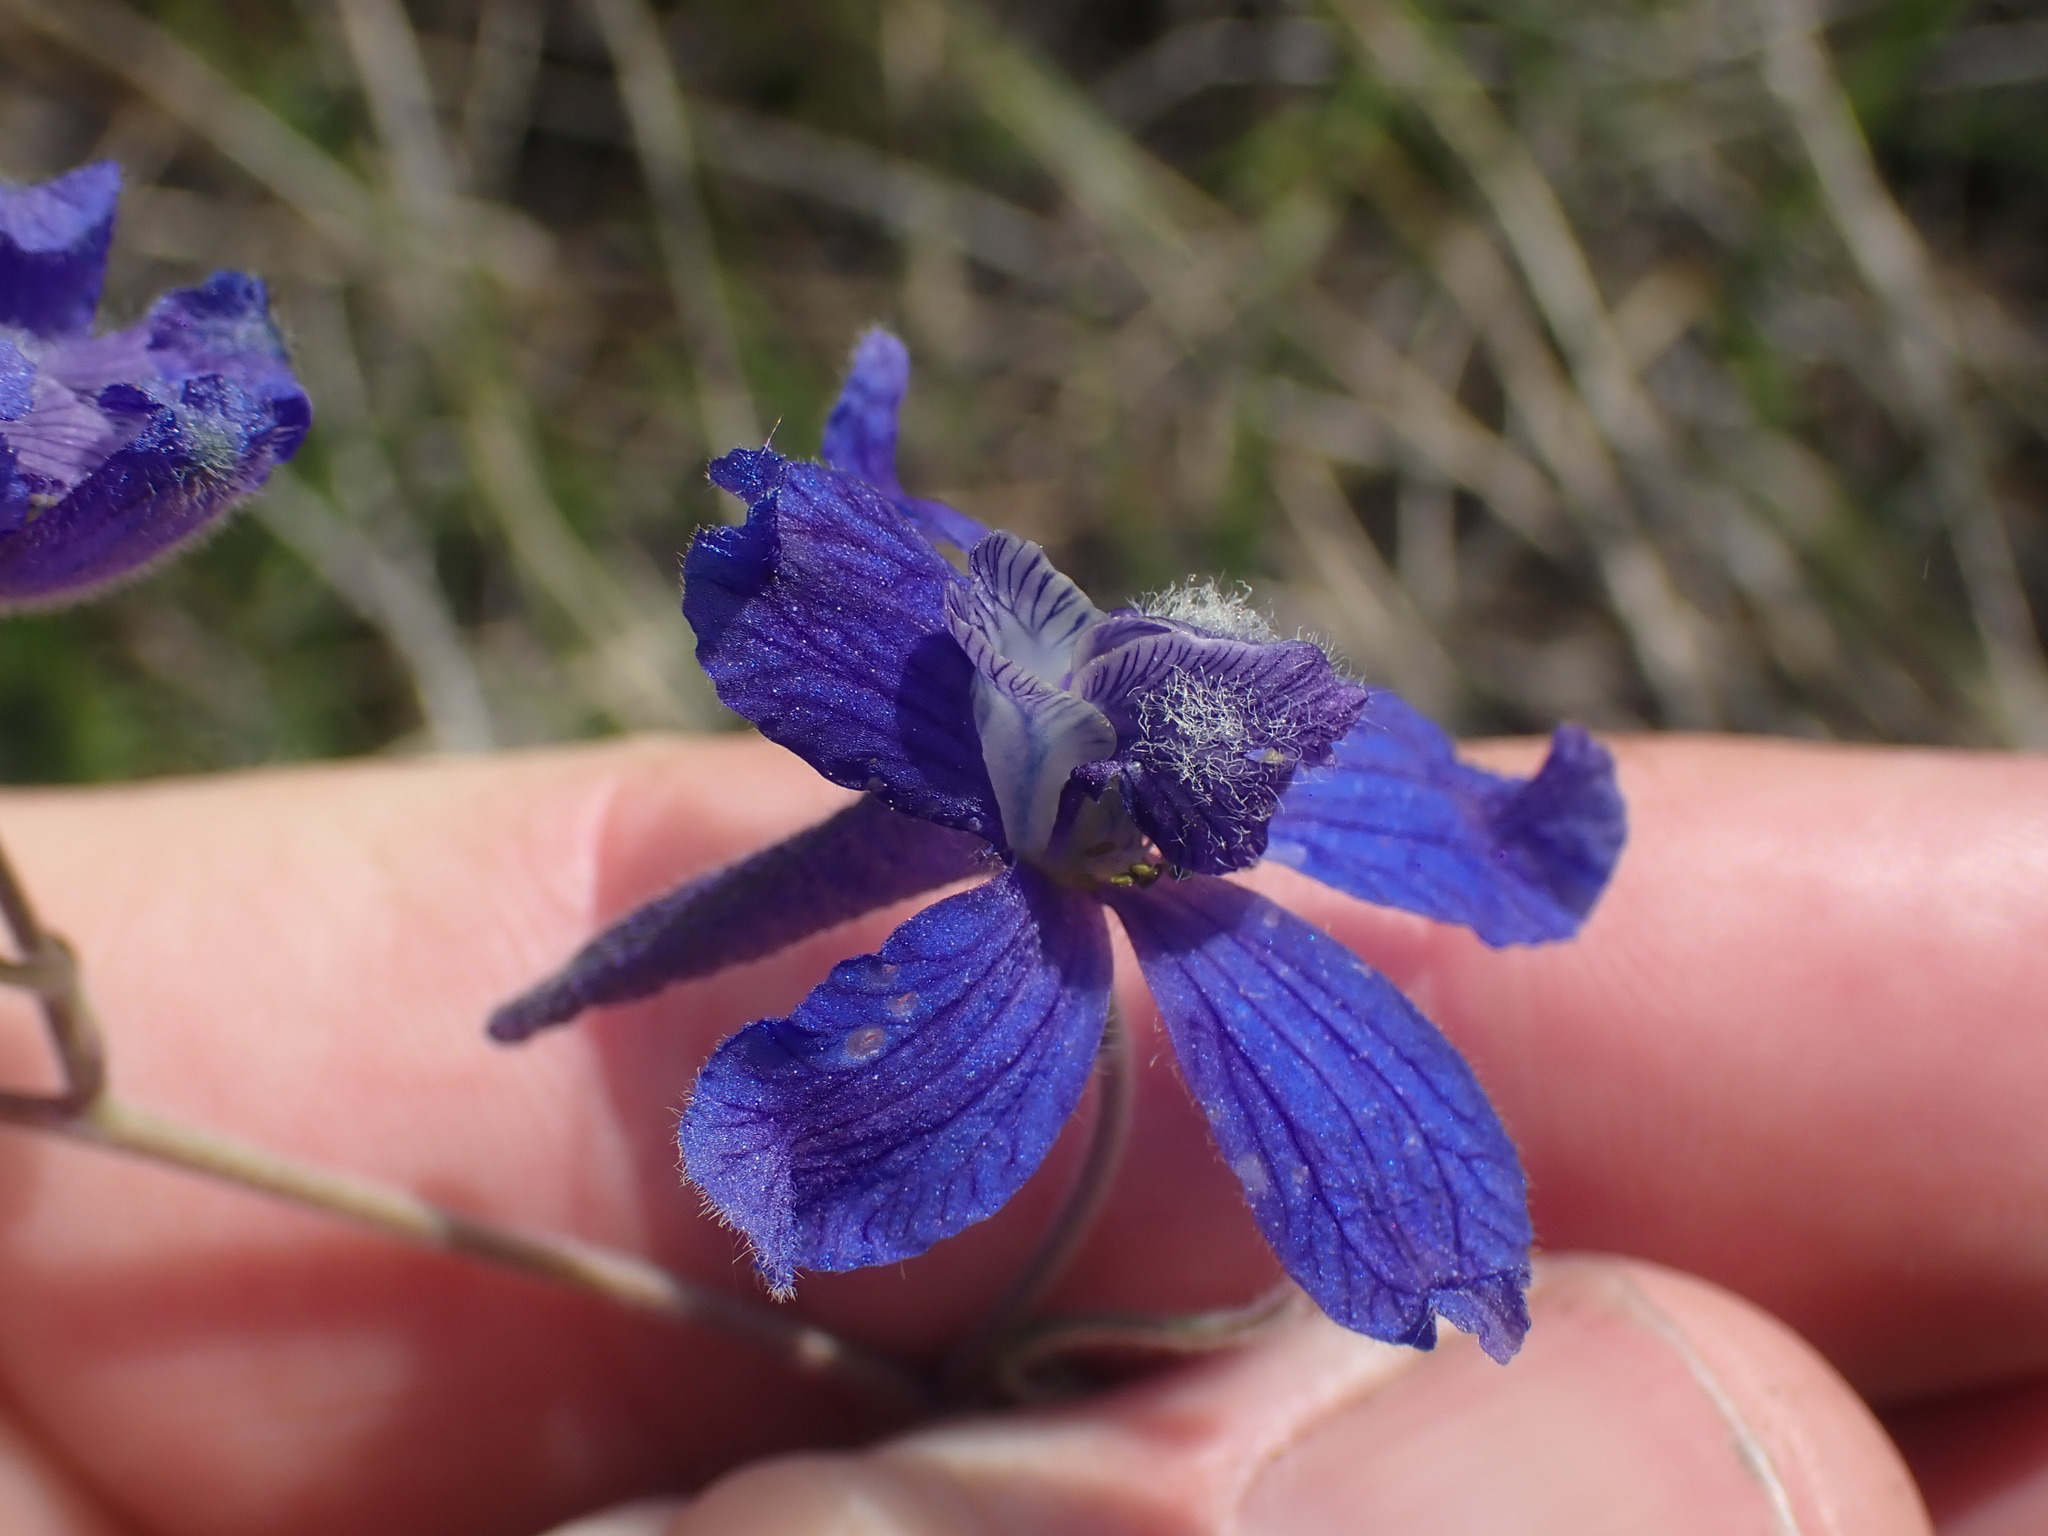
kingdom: Plantae
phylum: Tracheophyta
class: Magnoliopsida
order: Ranunculales
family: Ranunculaceae
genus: Delphinium
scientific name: Delphinium nuttallianum
